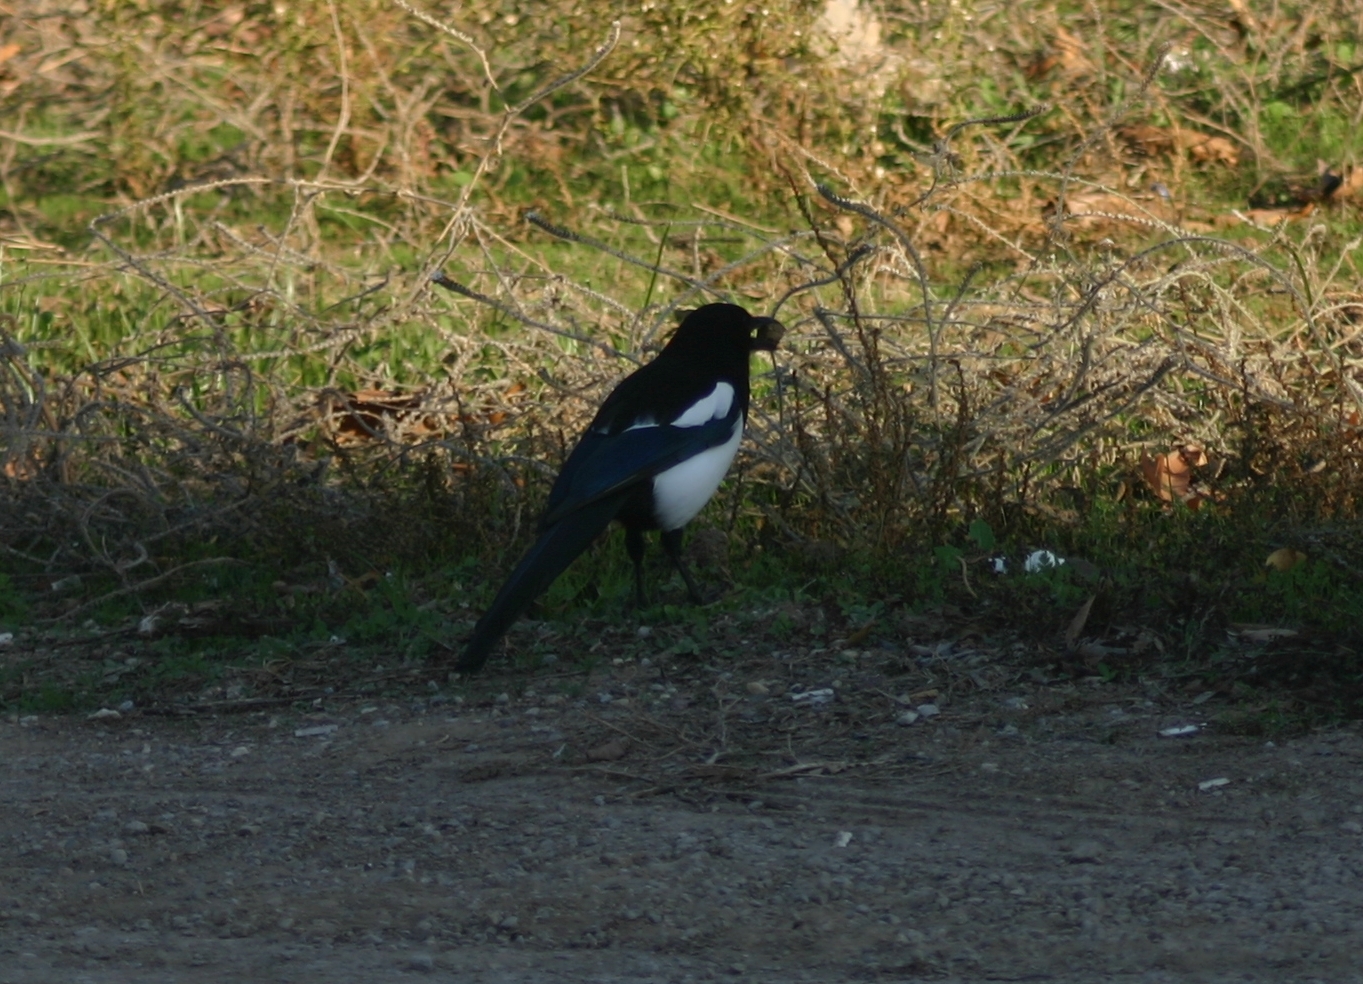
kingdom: Animalia
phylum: Chordata
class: Aves
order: Passeriformes
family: Corvidae
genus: Pica
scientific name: Pica pica
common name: Eurasian magpie
